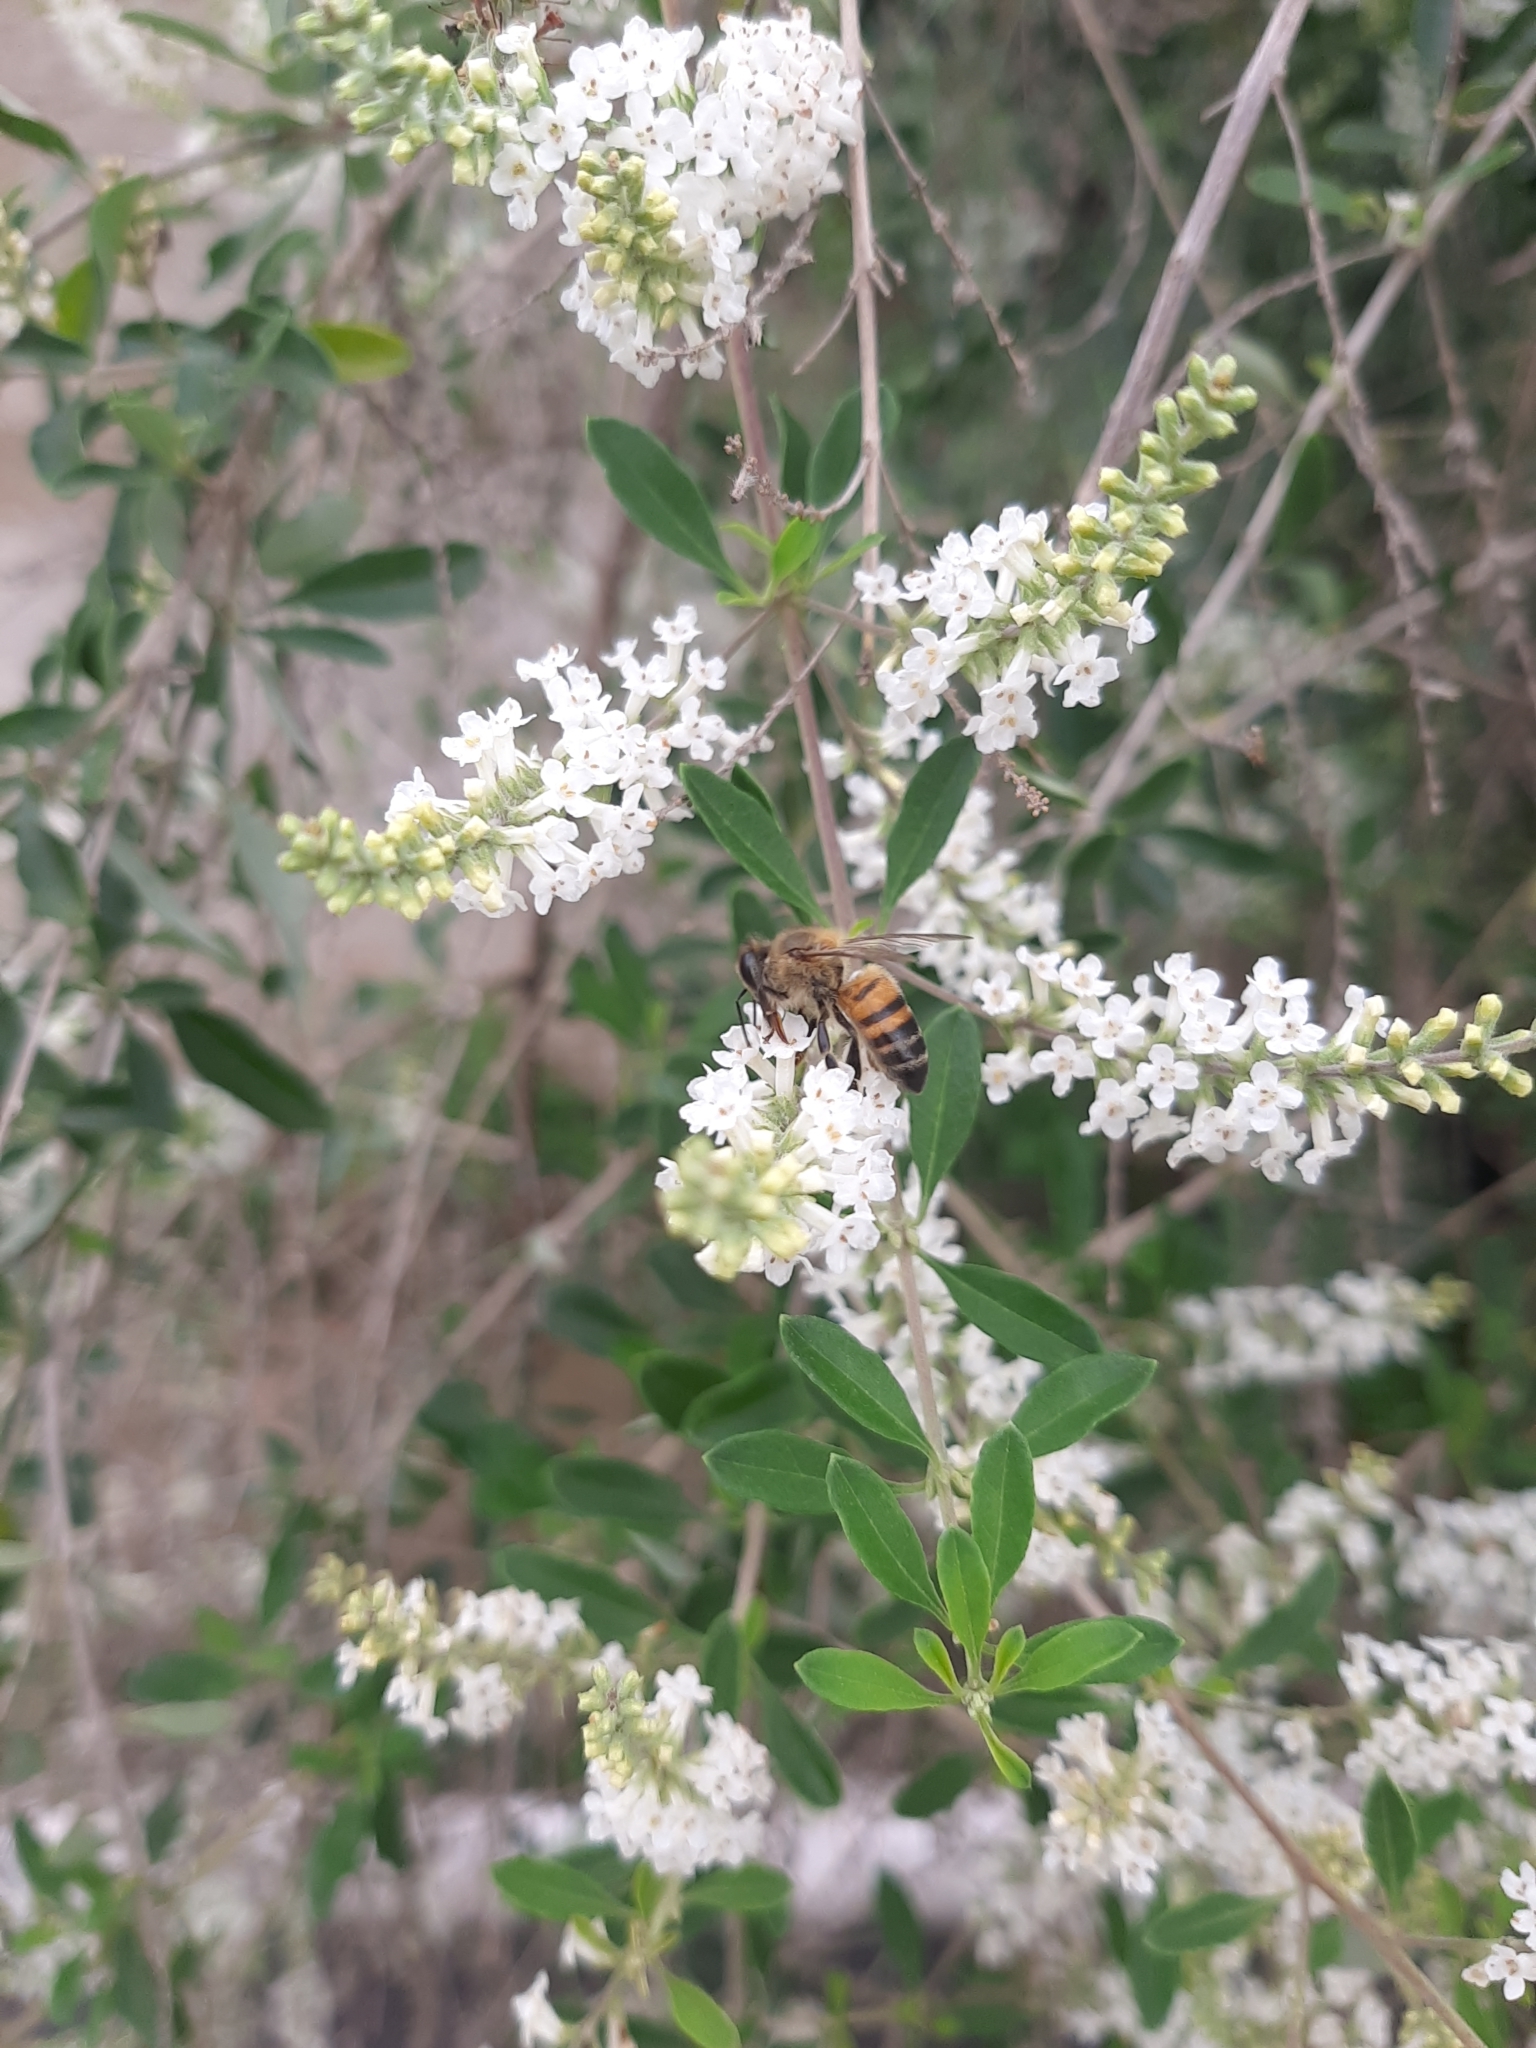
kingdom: Animalia
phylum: Arthropoda
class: Insecta
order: Hymenoptera
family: Apidae
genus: Apis
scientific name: Apis mellifera
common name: Honey bee
